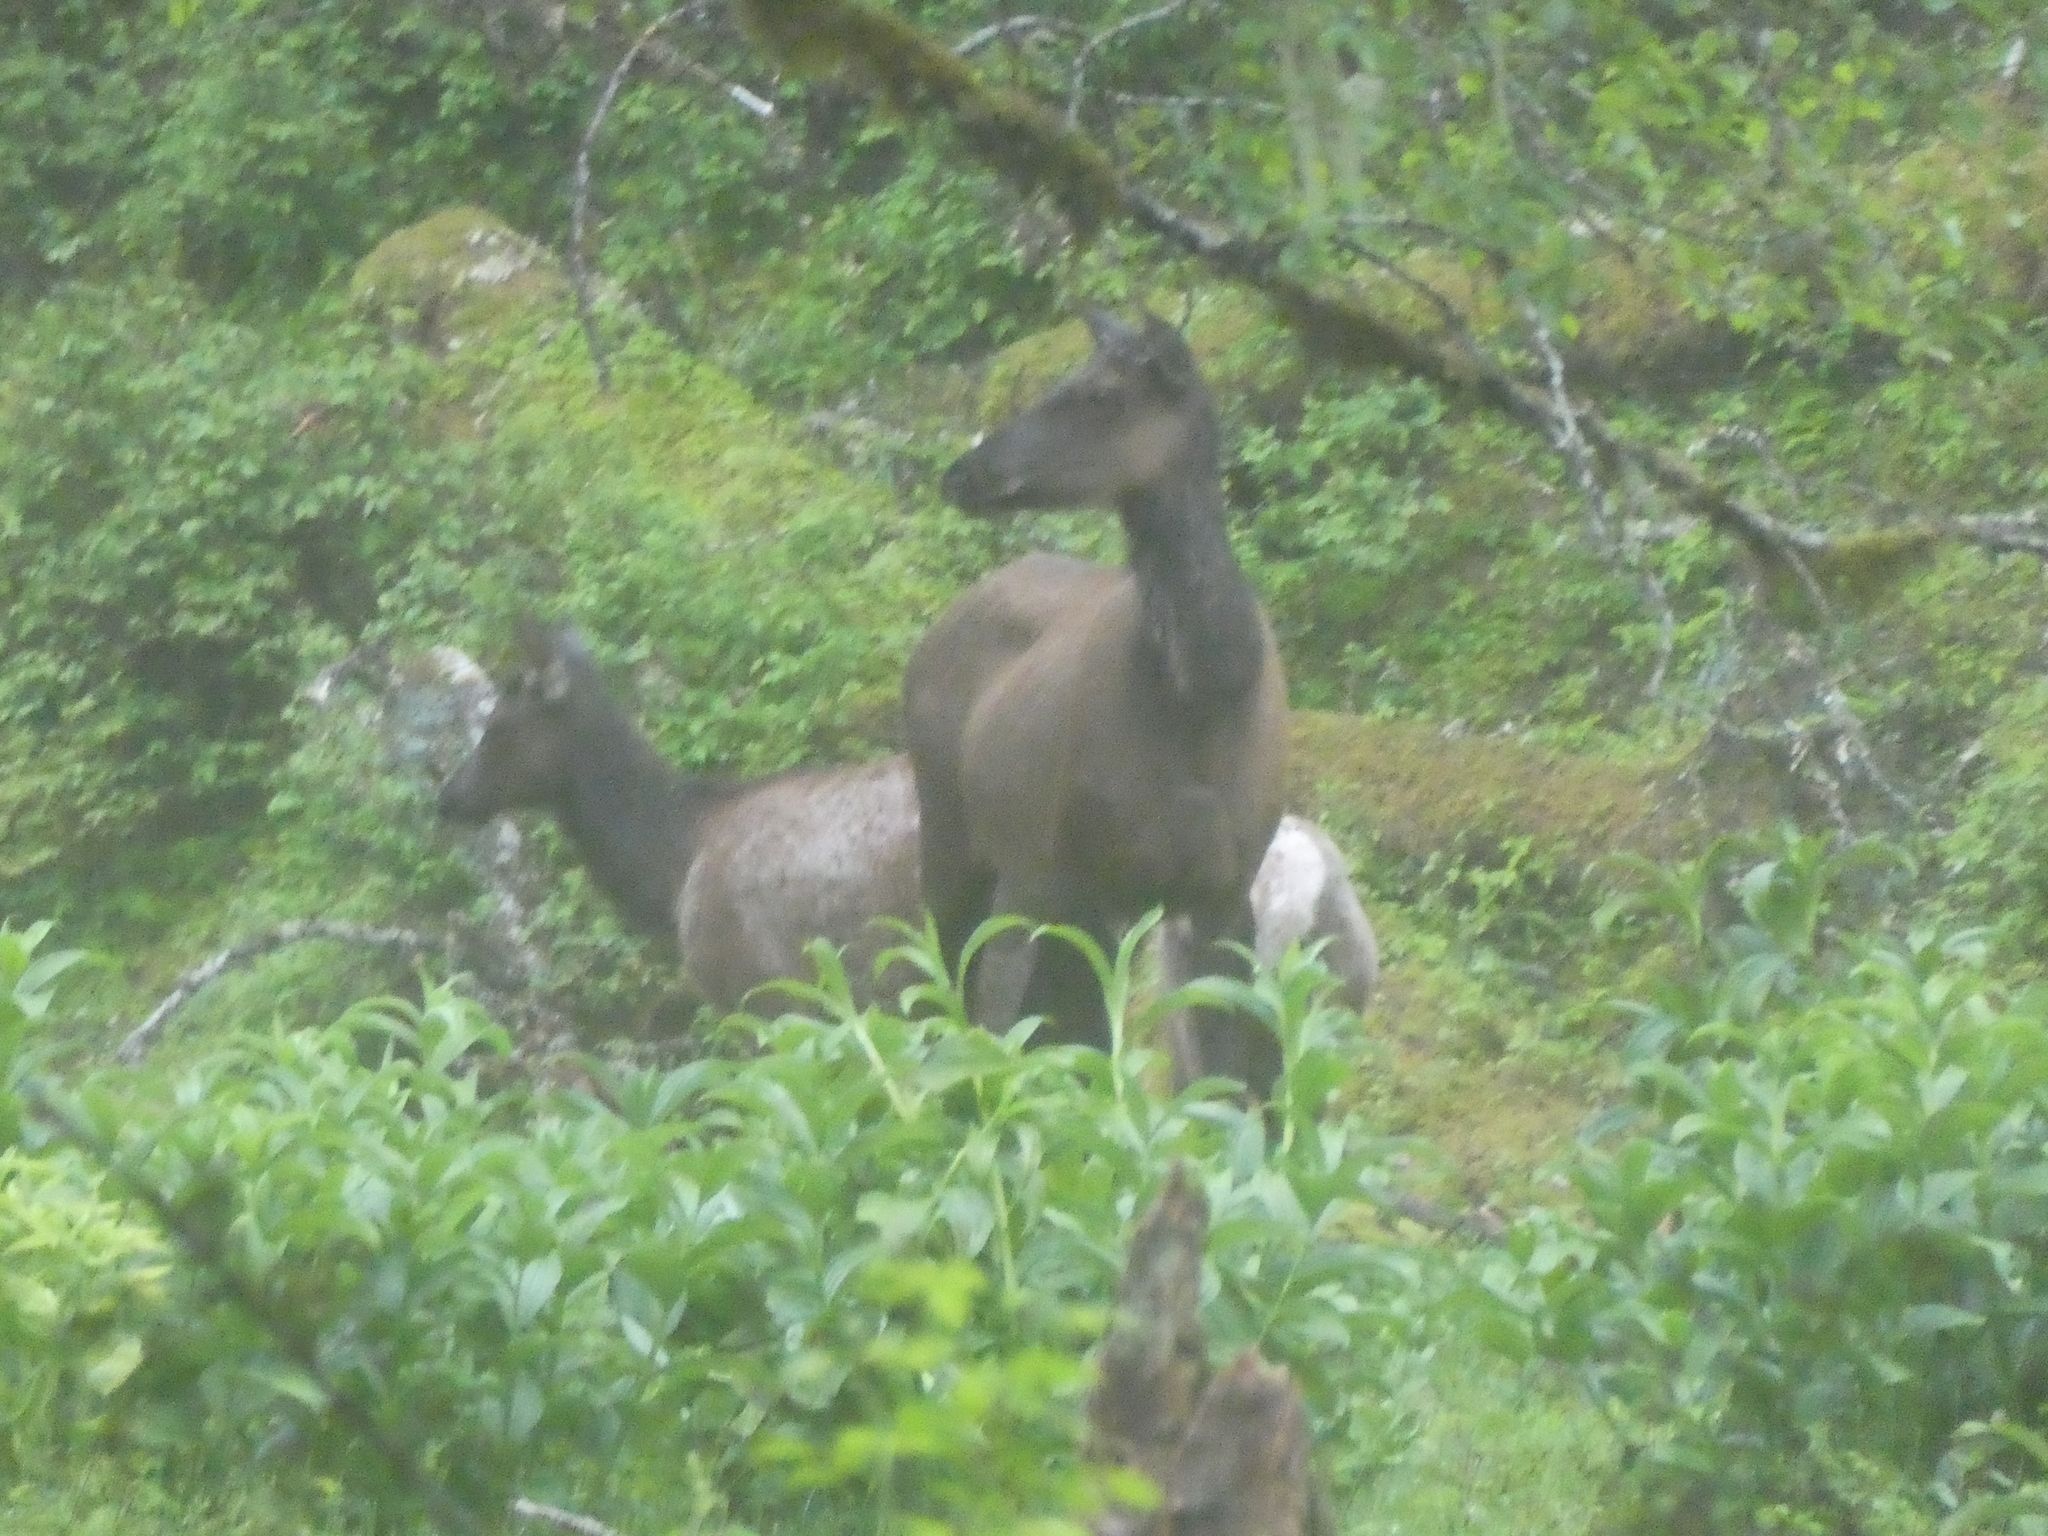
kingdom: Animalia
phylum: Chordata
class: Mammalia
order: Artiodactyla
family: Cervidae
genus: Cervus
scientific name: Cervus elaphus
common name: Red deer
